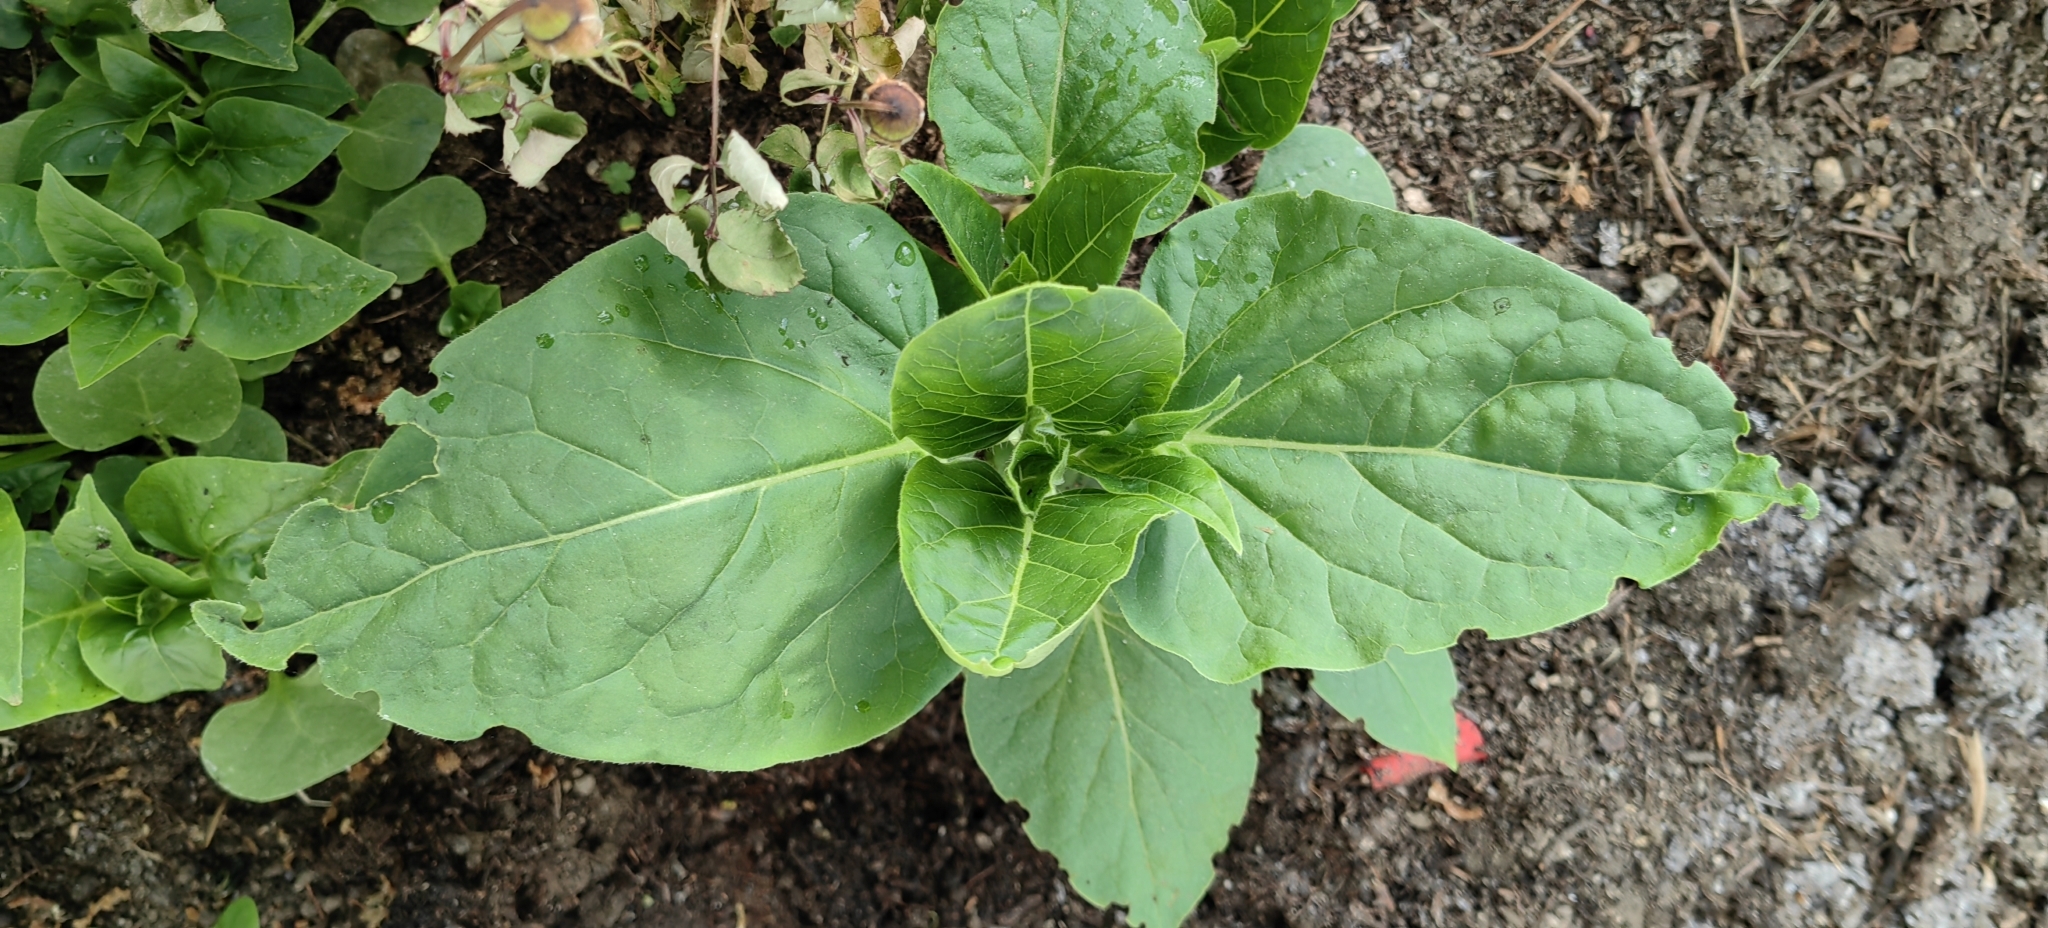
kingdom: Plantae
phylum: Tracheophyta
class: Magnoliopsida
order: Caryophyllales
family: Nyctaginaceae
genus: Mirabilis
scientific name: Mirabilis jalapa
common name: Marvel-of-peru
